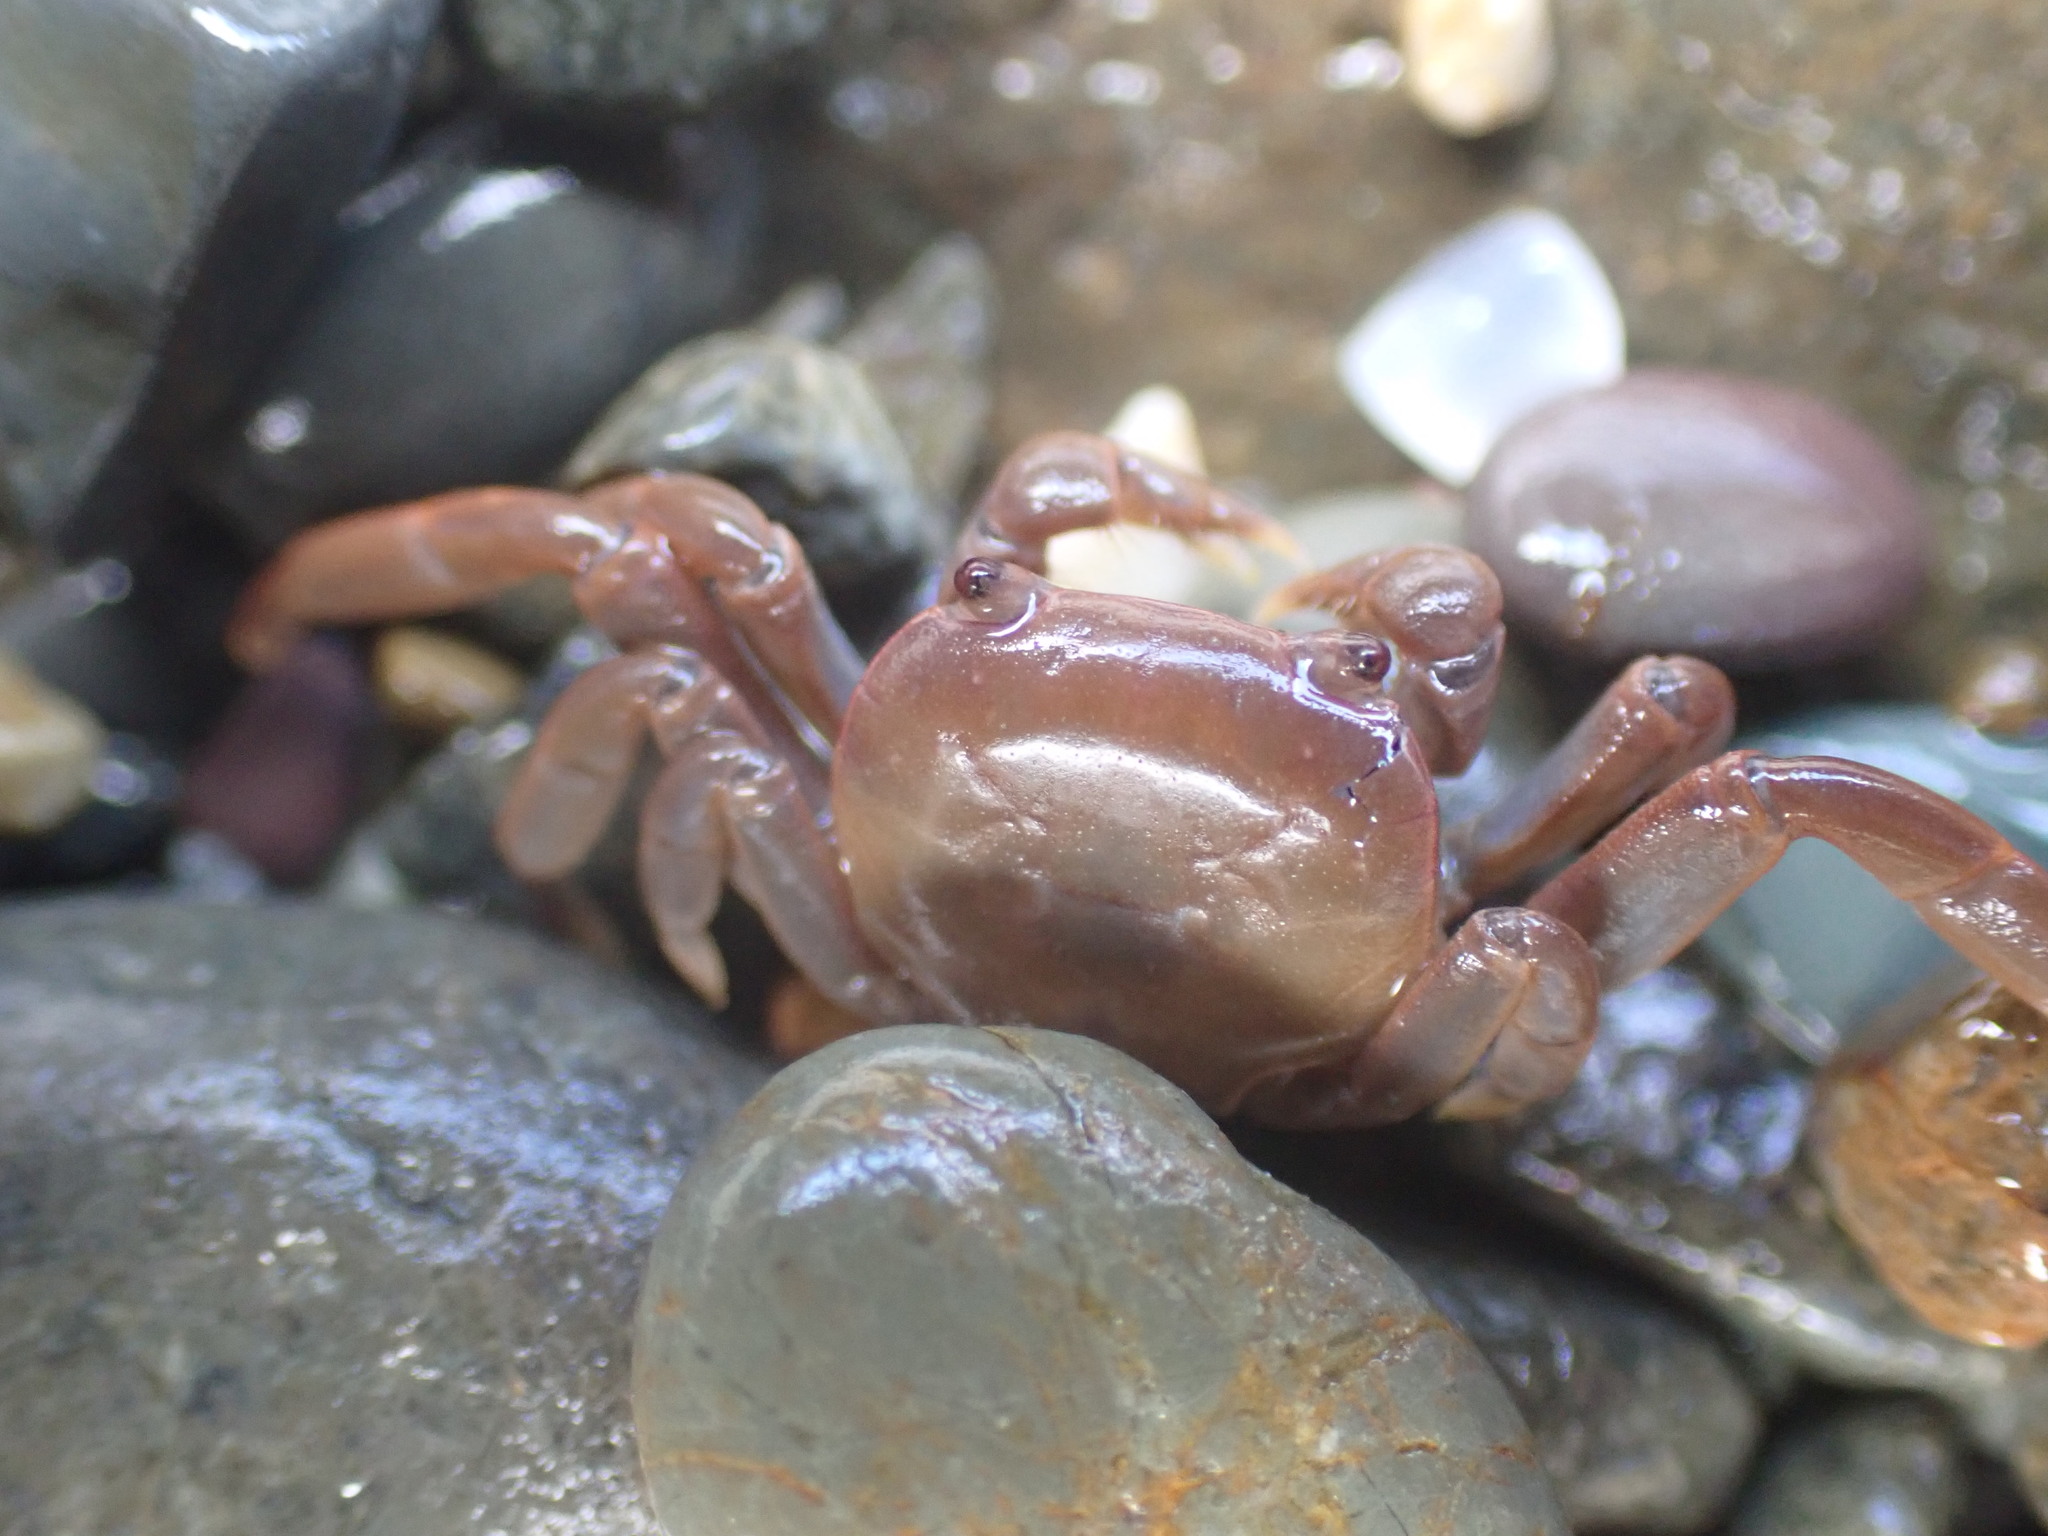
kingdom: Animalia
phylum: Arthropoda
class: Malacostraca
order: Decapoda
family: Varunidae
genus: Cyclograpsus
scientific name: Cyclograpsus insularum
